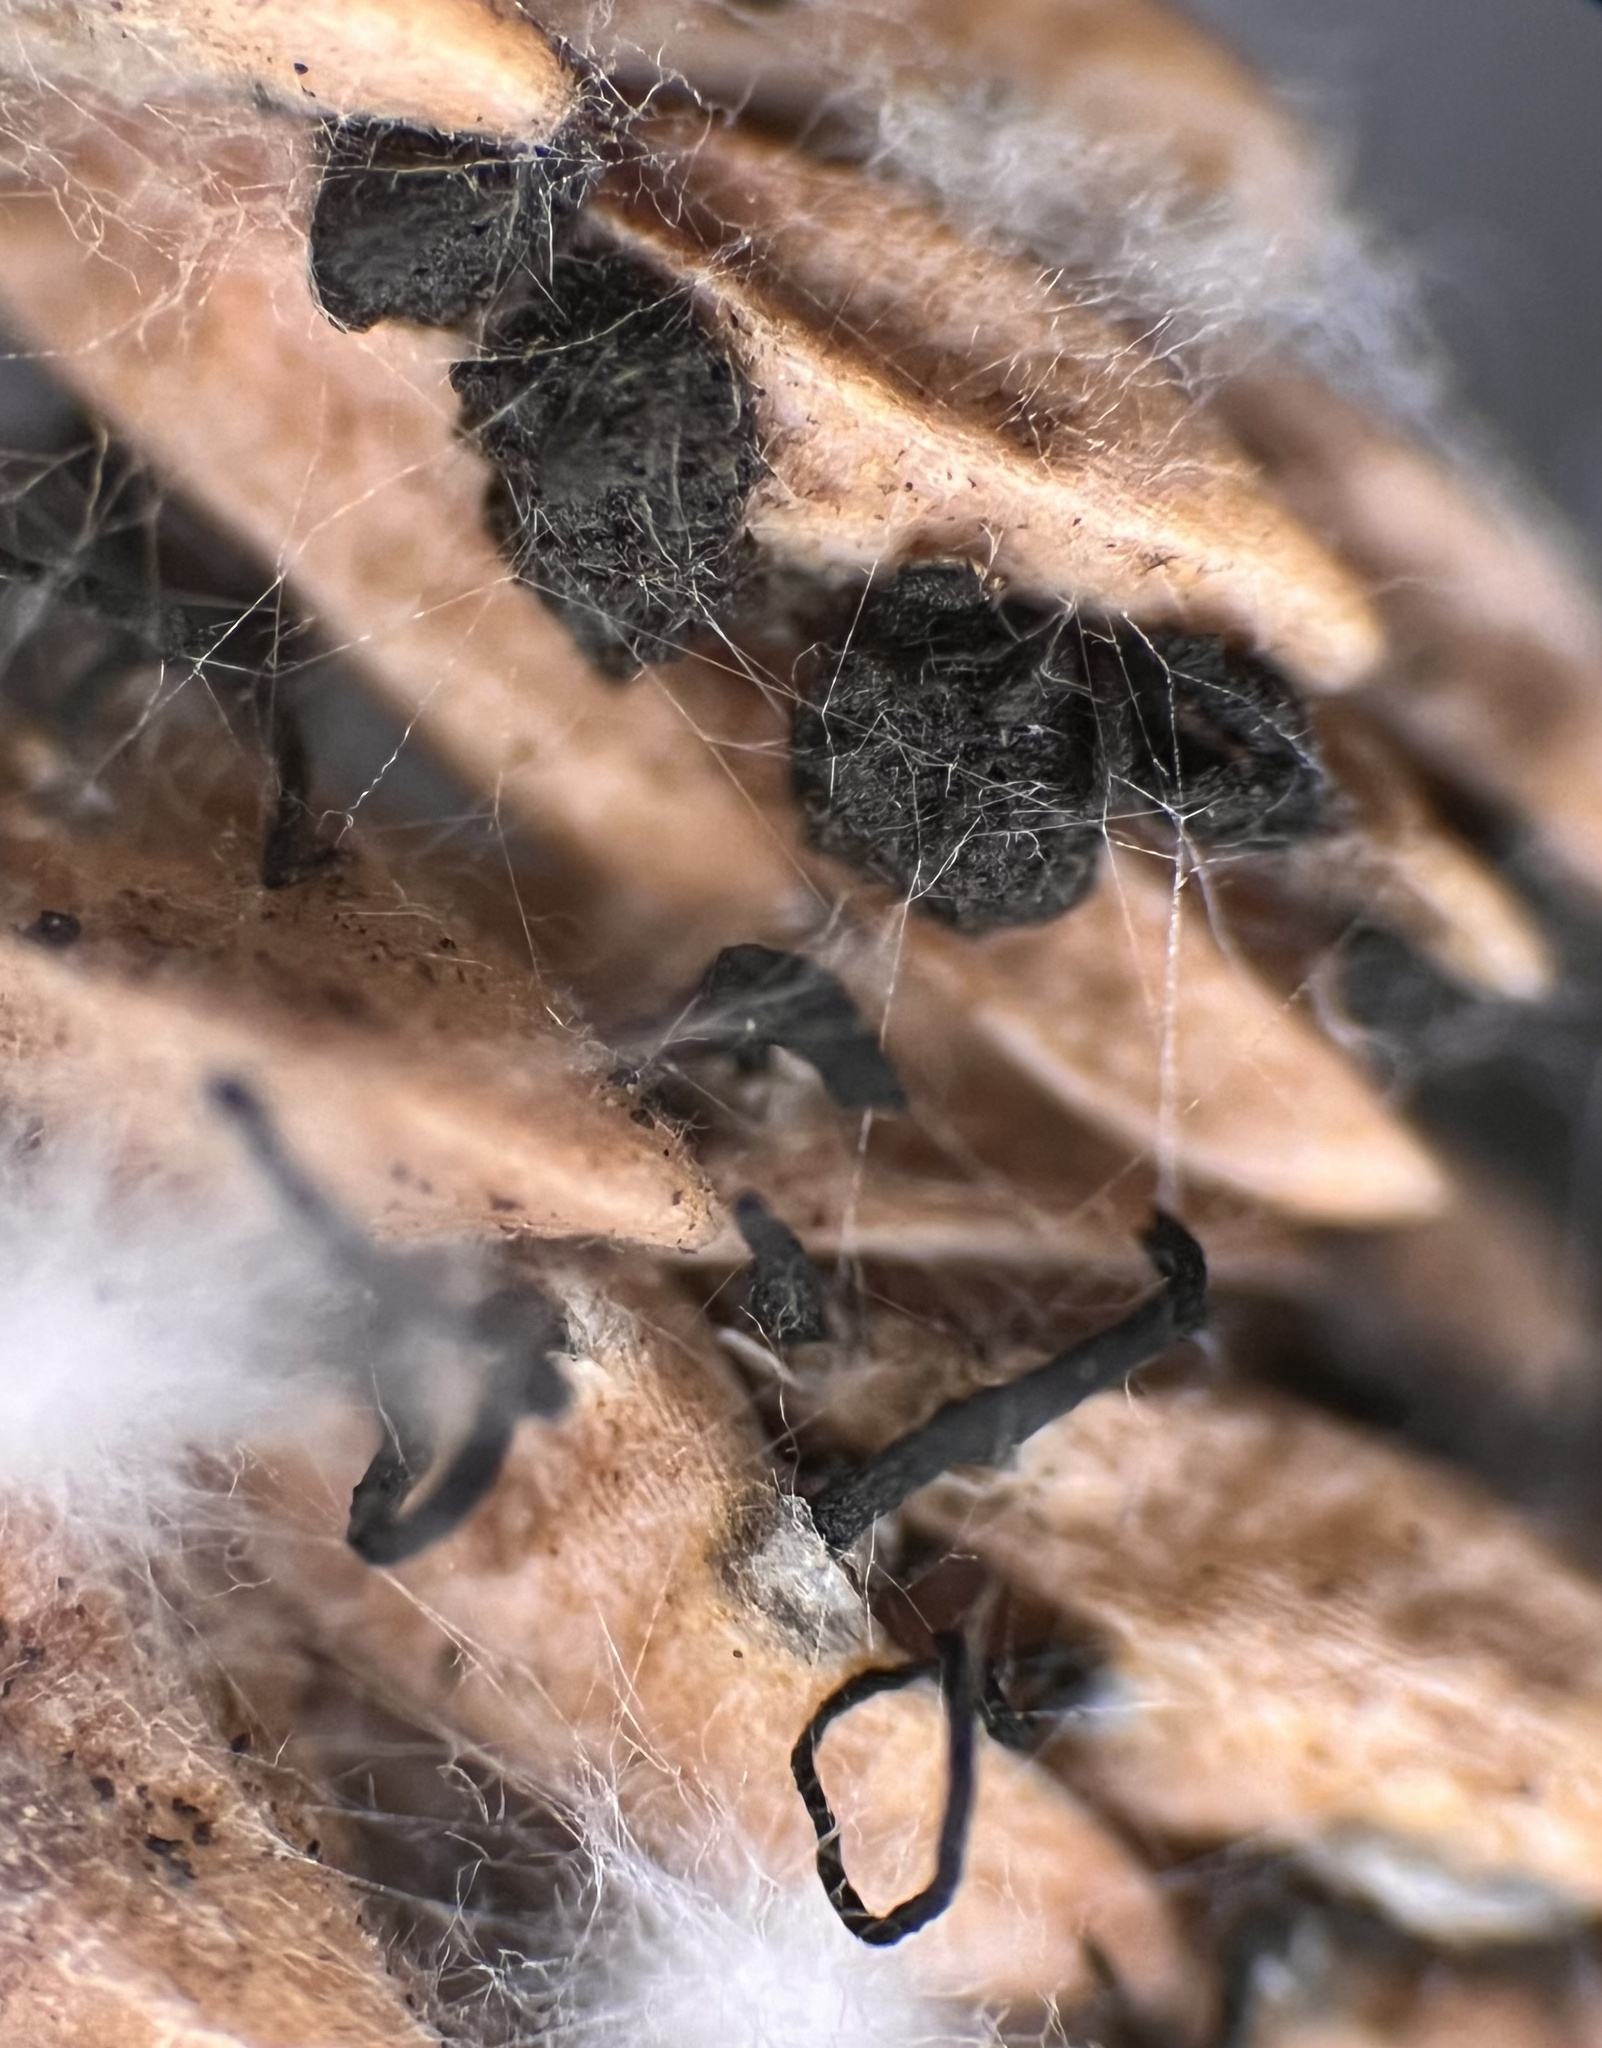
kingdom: Fungi
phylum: Ascomycota
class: Sordariomycetes
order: Amphisphaeriales
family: Pestalotiopsidaceae
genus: Seiridium
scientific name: Seiridium cardinale
